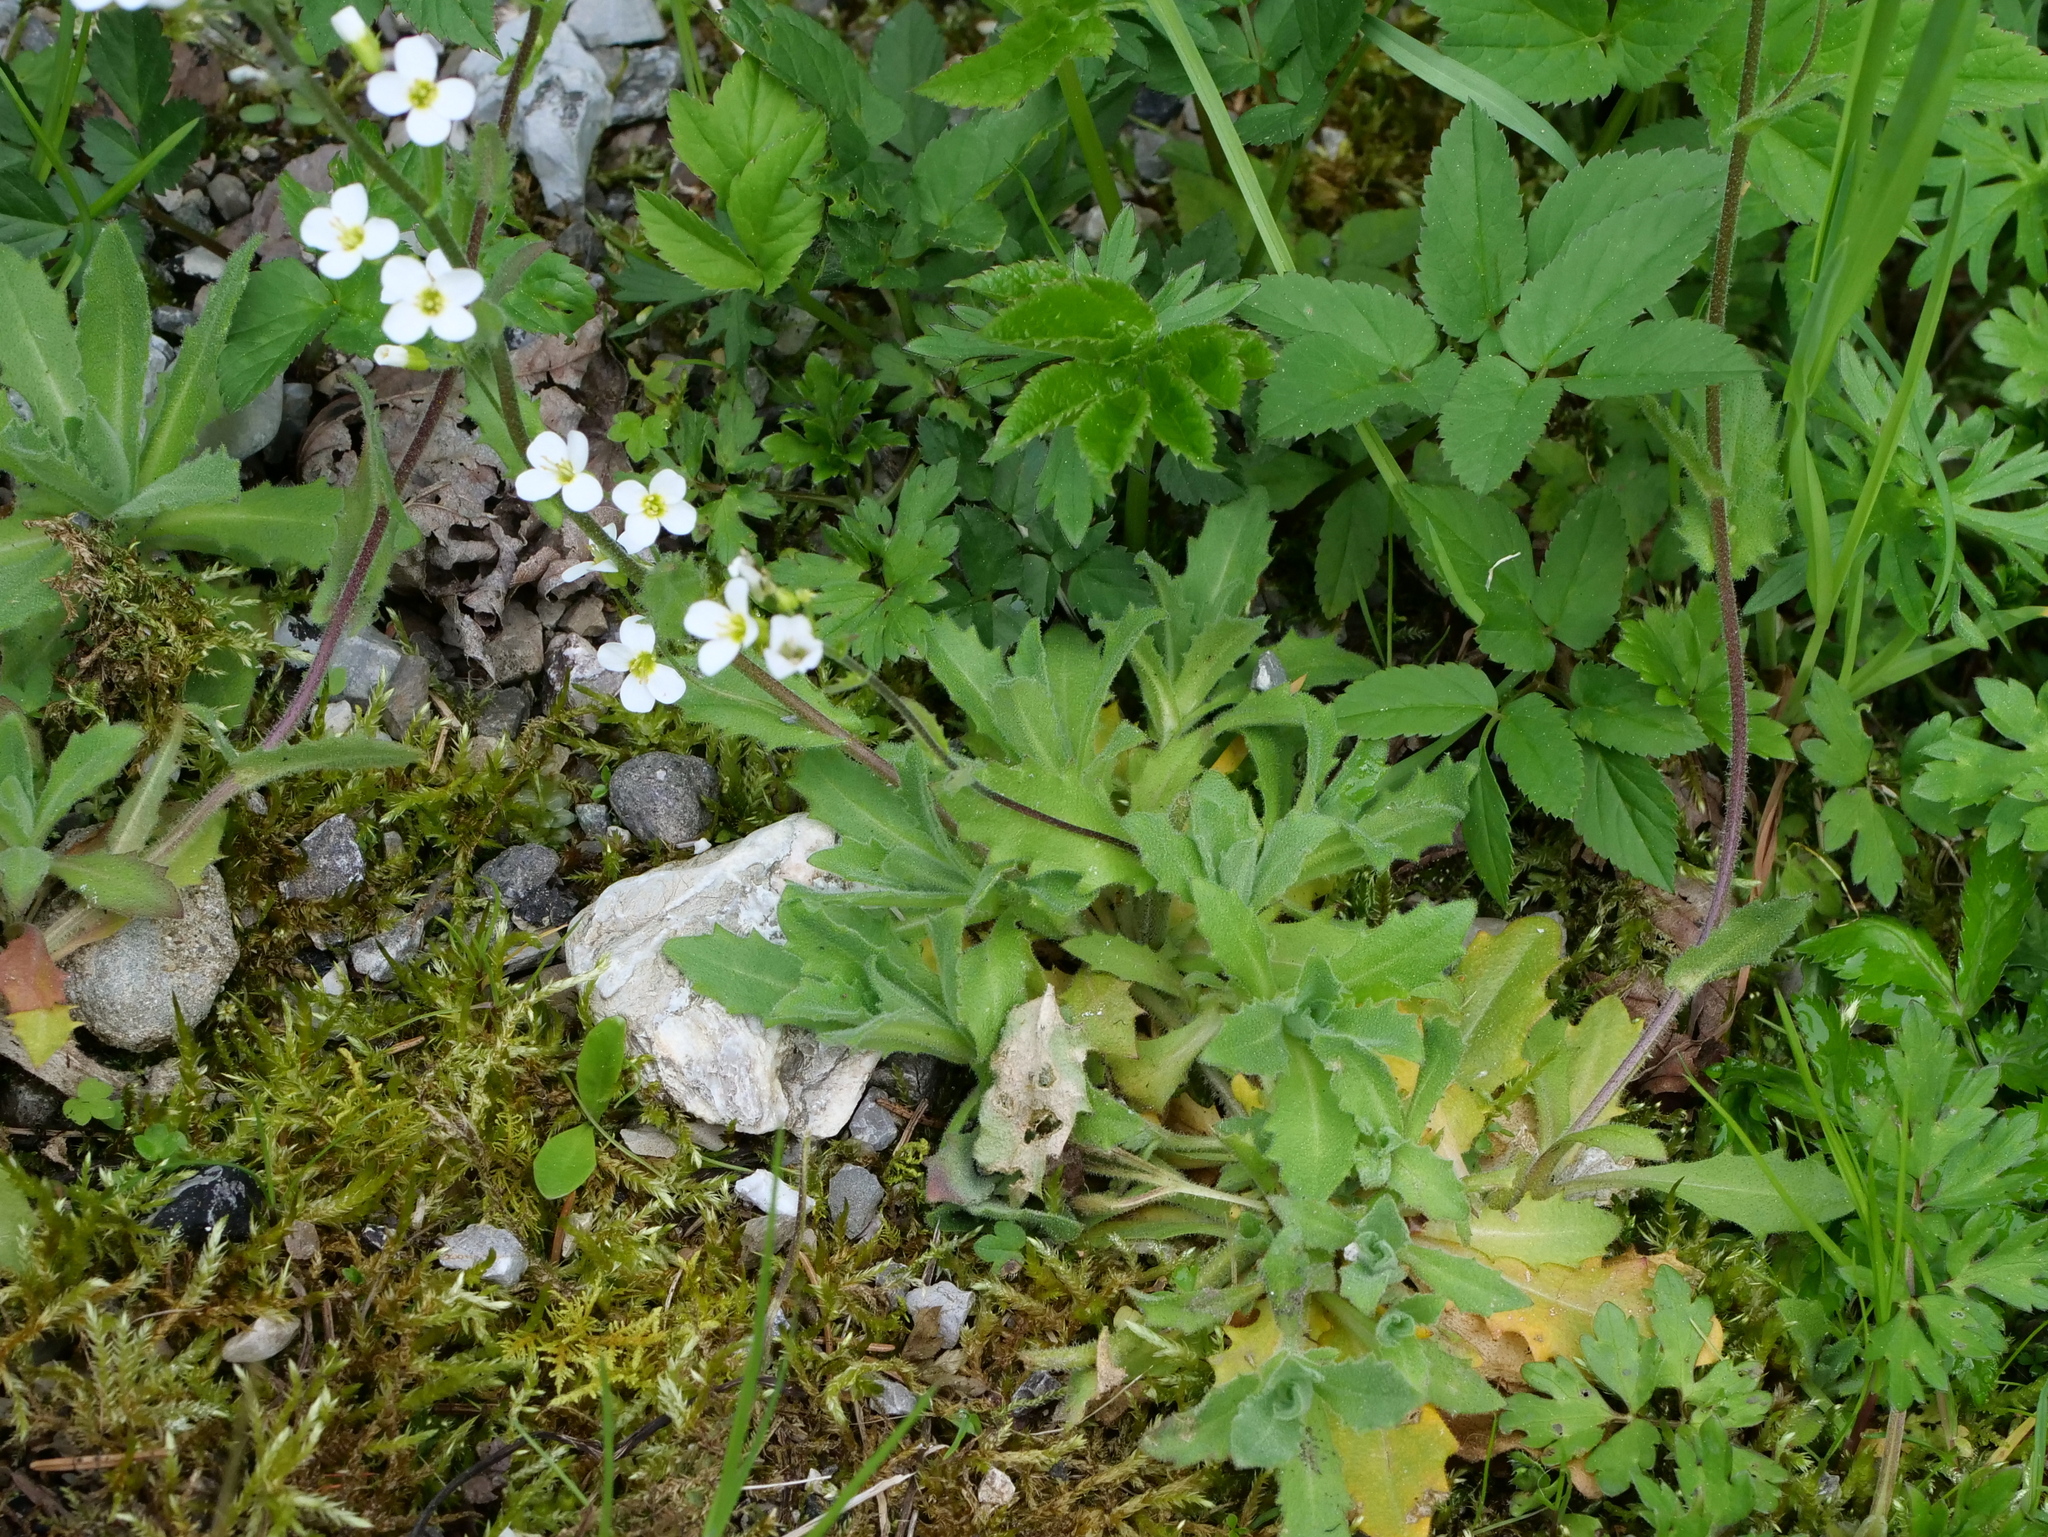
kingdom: Plantae
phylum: Tracheophyta
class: Magnoliopsida
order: Brassicales
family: Brassicaceae
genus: Arabis
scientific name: Arabis alpina
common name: Alpine rock-cress
